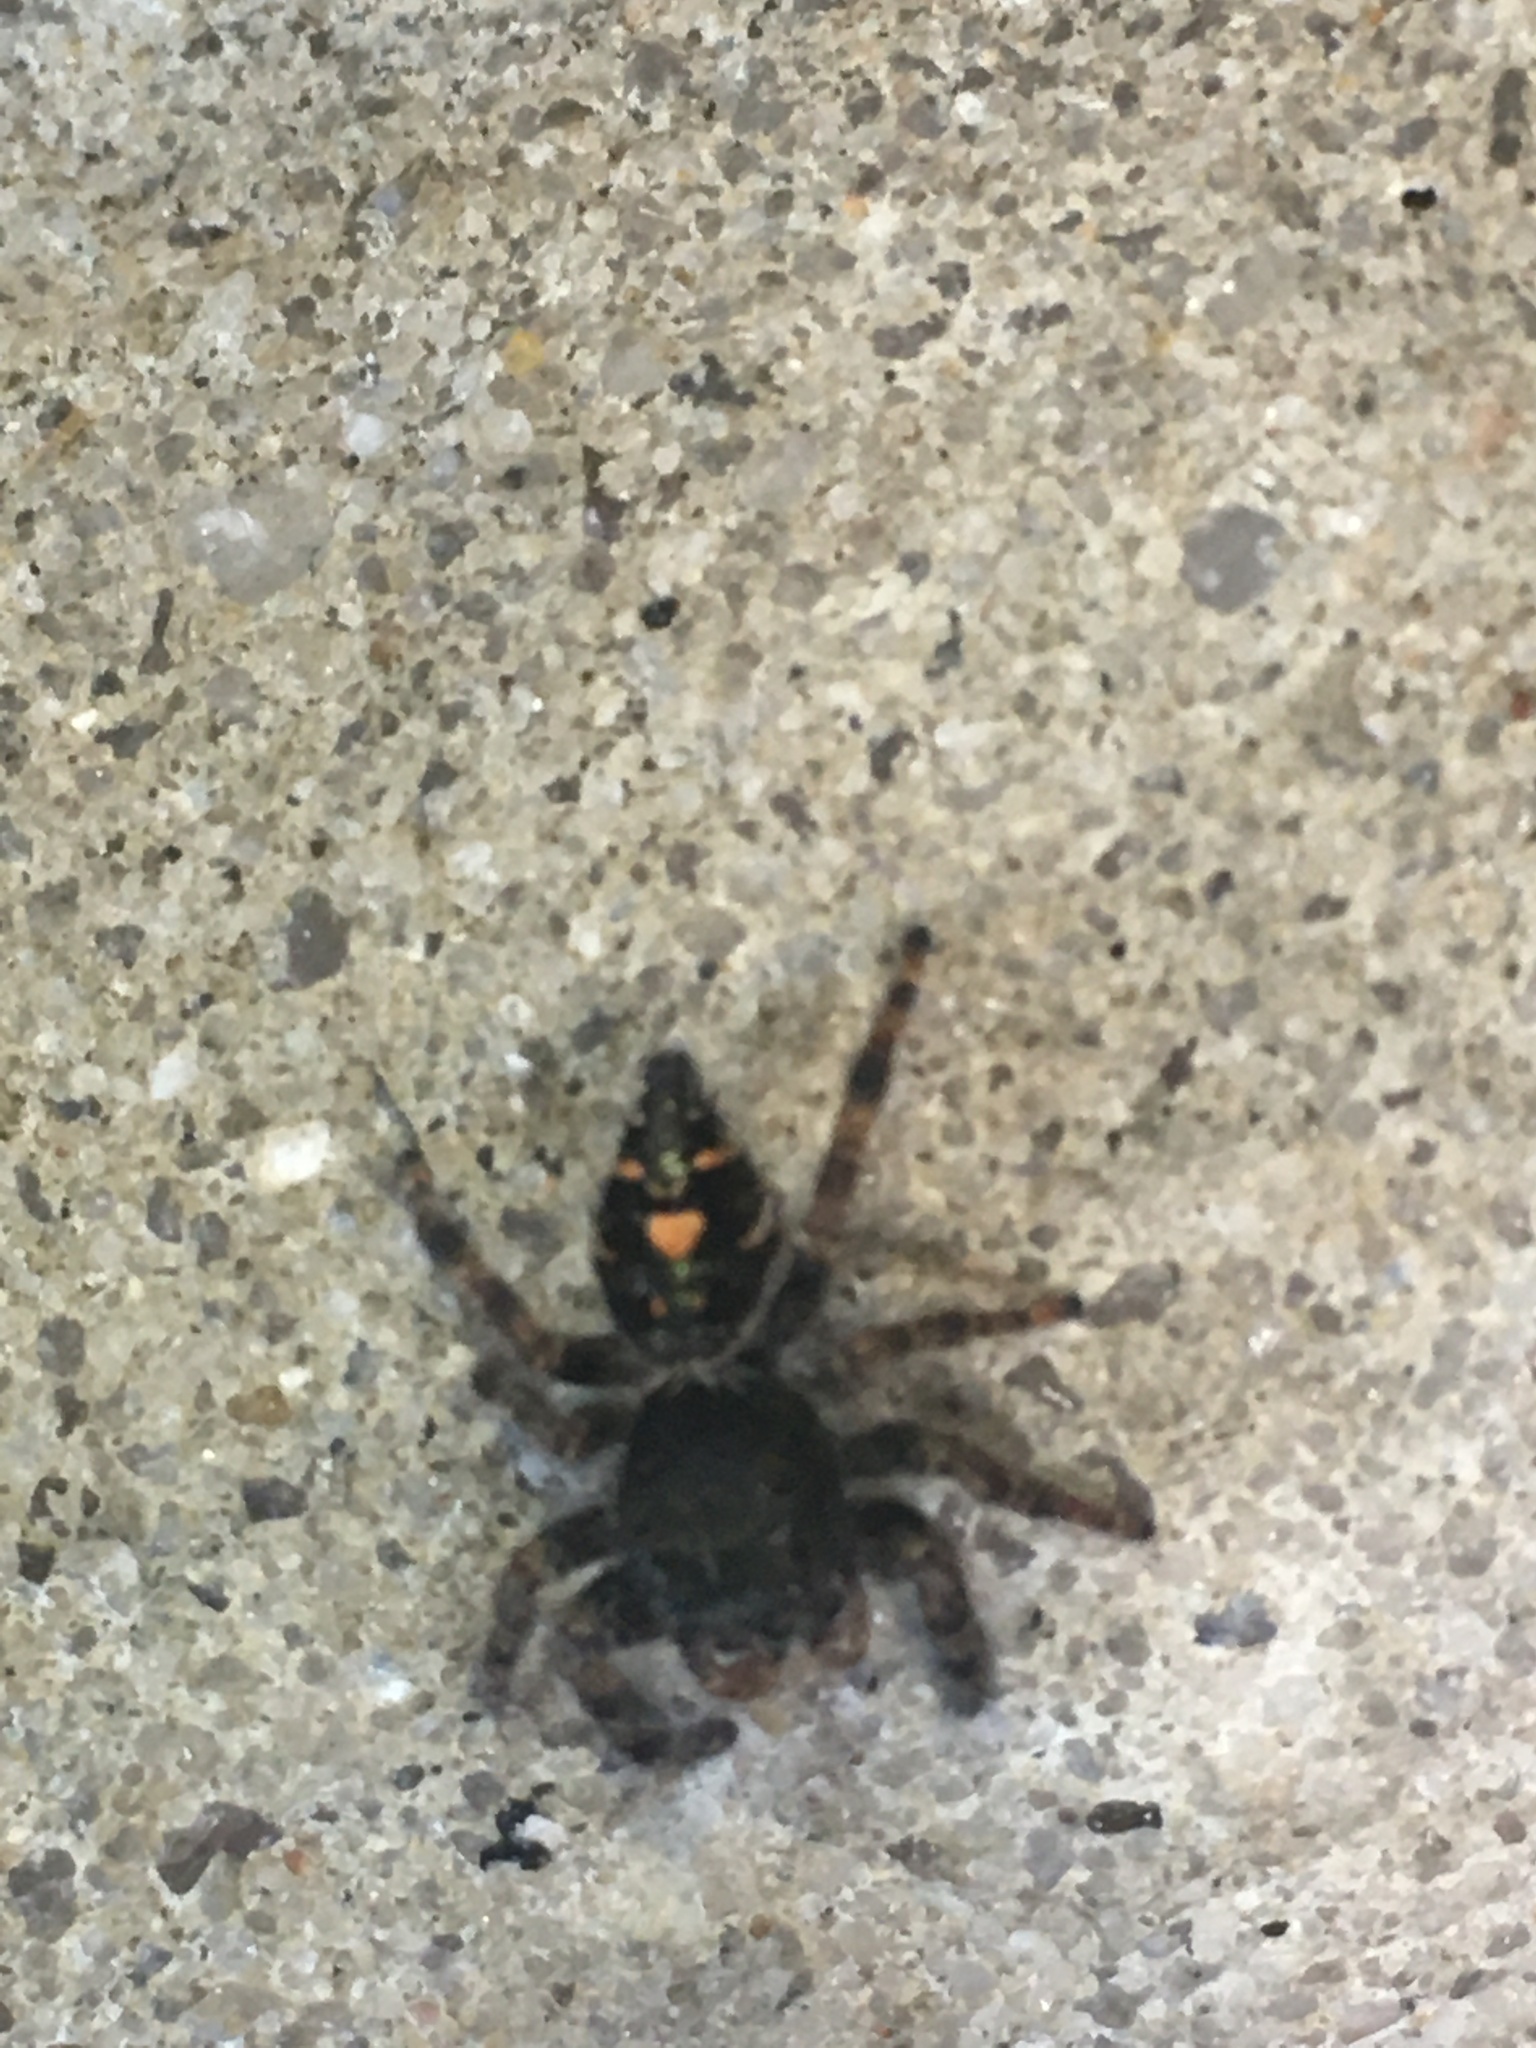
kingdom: Animalia
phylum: Arthropoda
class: Arachnida
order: Araneae
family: Salticidae
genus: Phidippus
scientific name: Phidippus audax
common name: Bold jumper
